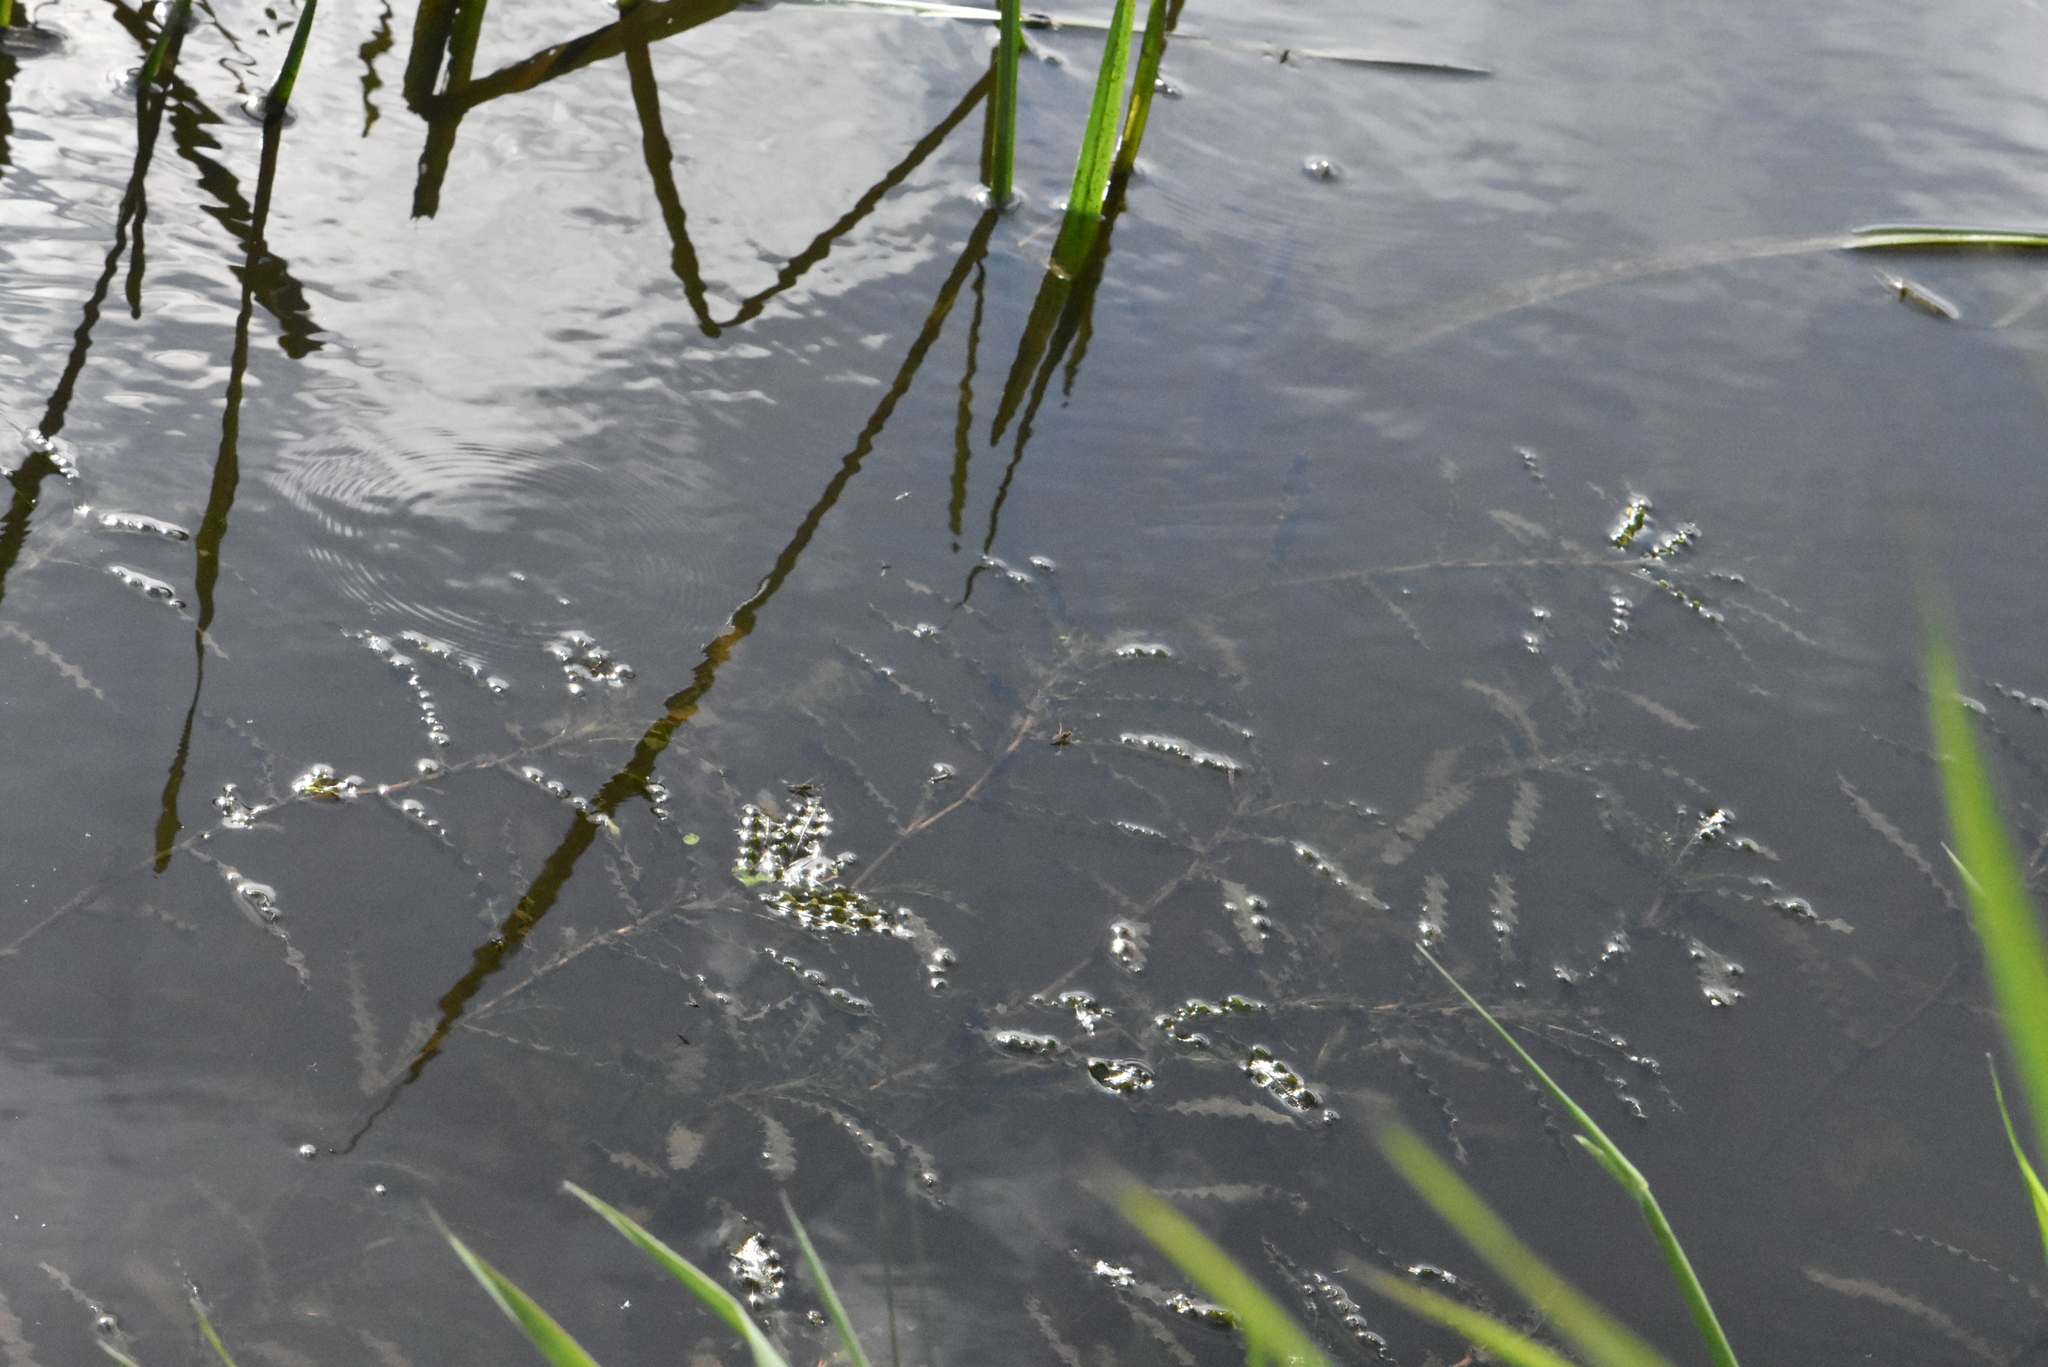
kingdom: Plantae
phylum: Tracheophyta
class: Liliopsida
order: Alismatales
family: Potamogetonaceae
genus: Potamogeton
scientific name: Potamogeton crispus
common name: Curled pondweed
